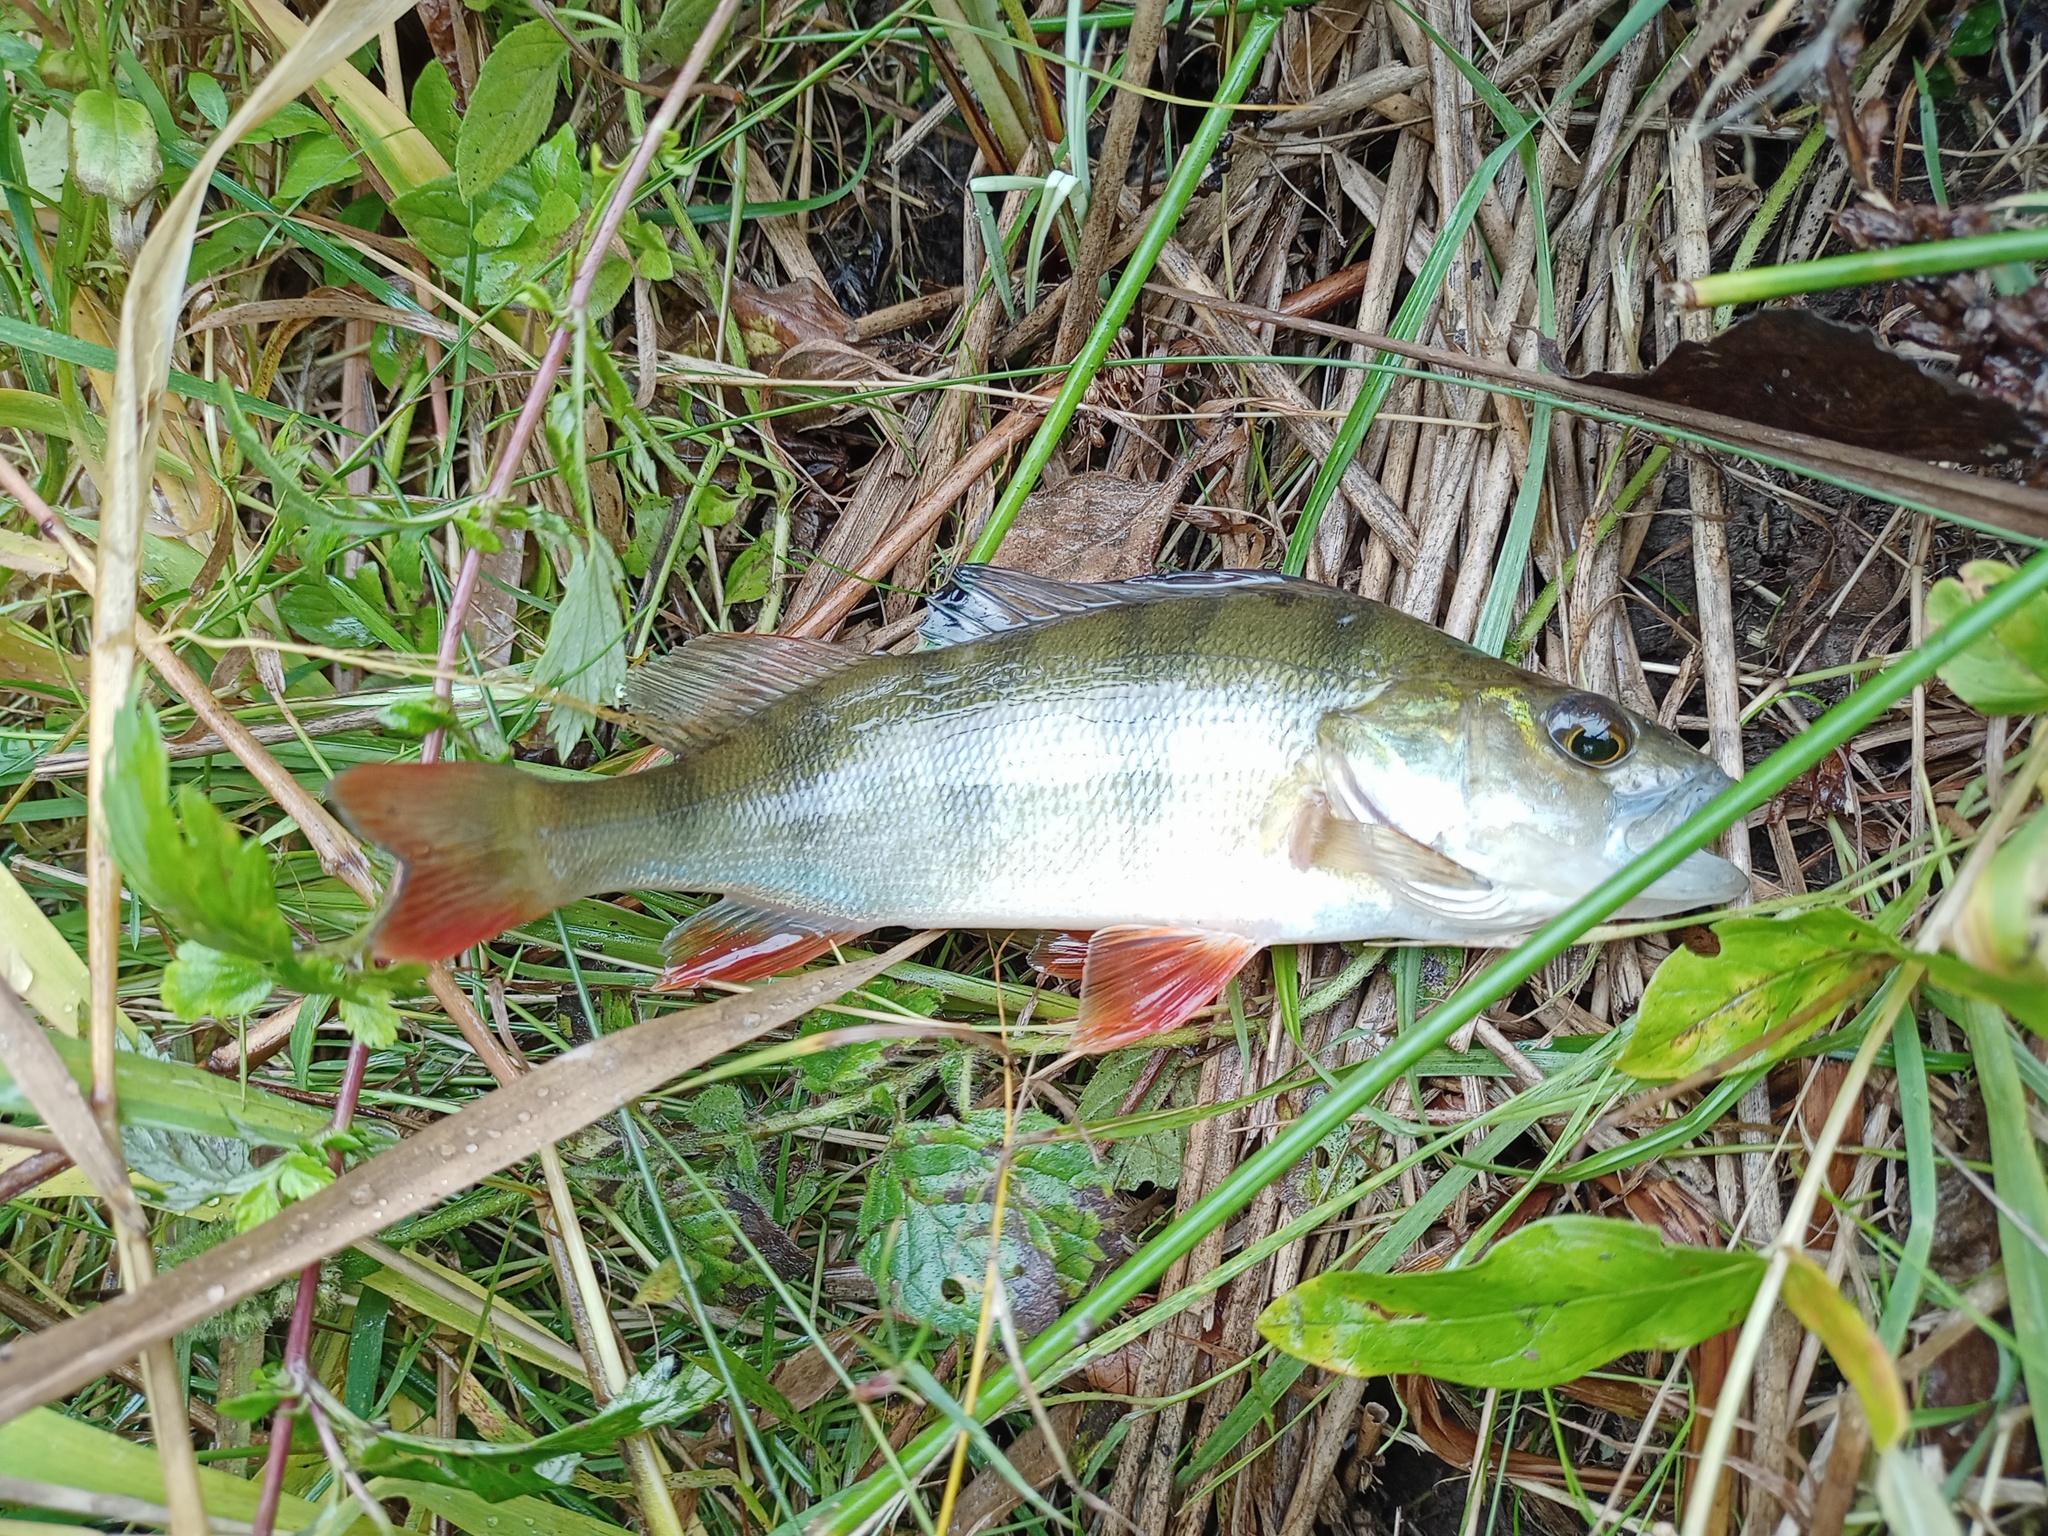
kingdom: Animalia
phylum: Chordata
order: Perciformes
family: Percidae
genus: Perca
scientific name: Perca fluviatilis
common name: Perch
